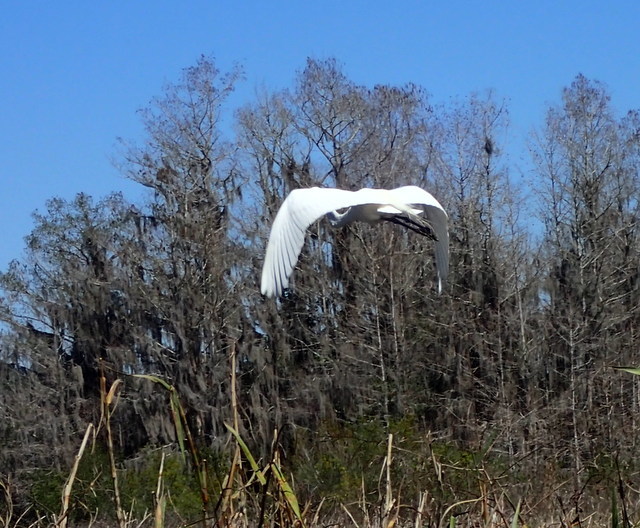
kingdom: Animalia
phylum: Chordata
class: Aves
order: Pelecaniformes
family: Ardeidae
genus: Ardea
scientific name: Ardea alba
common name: Great egret
